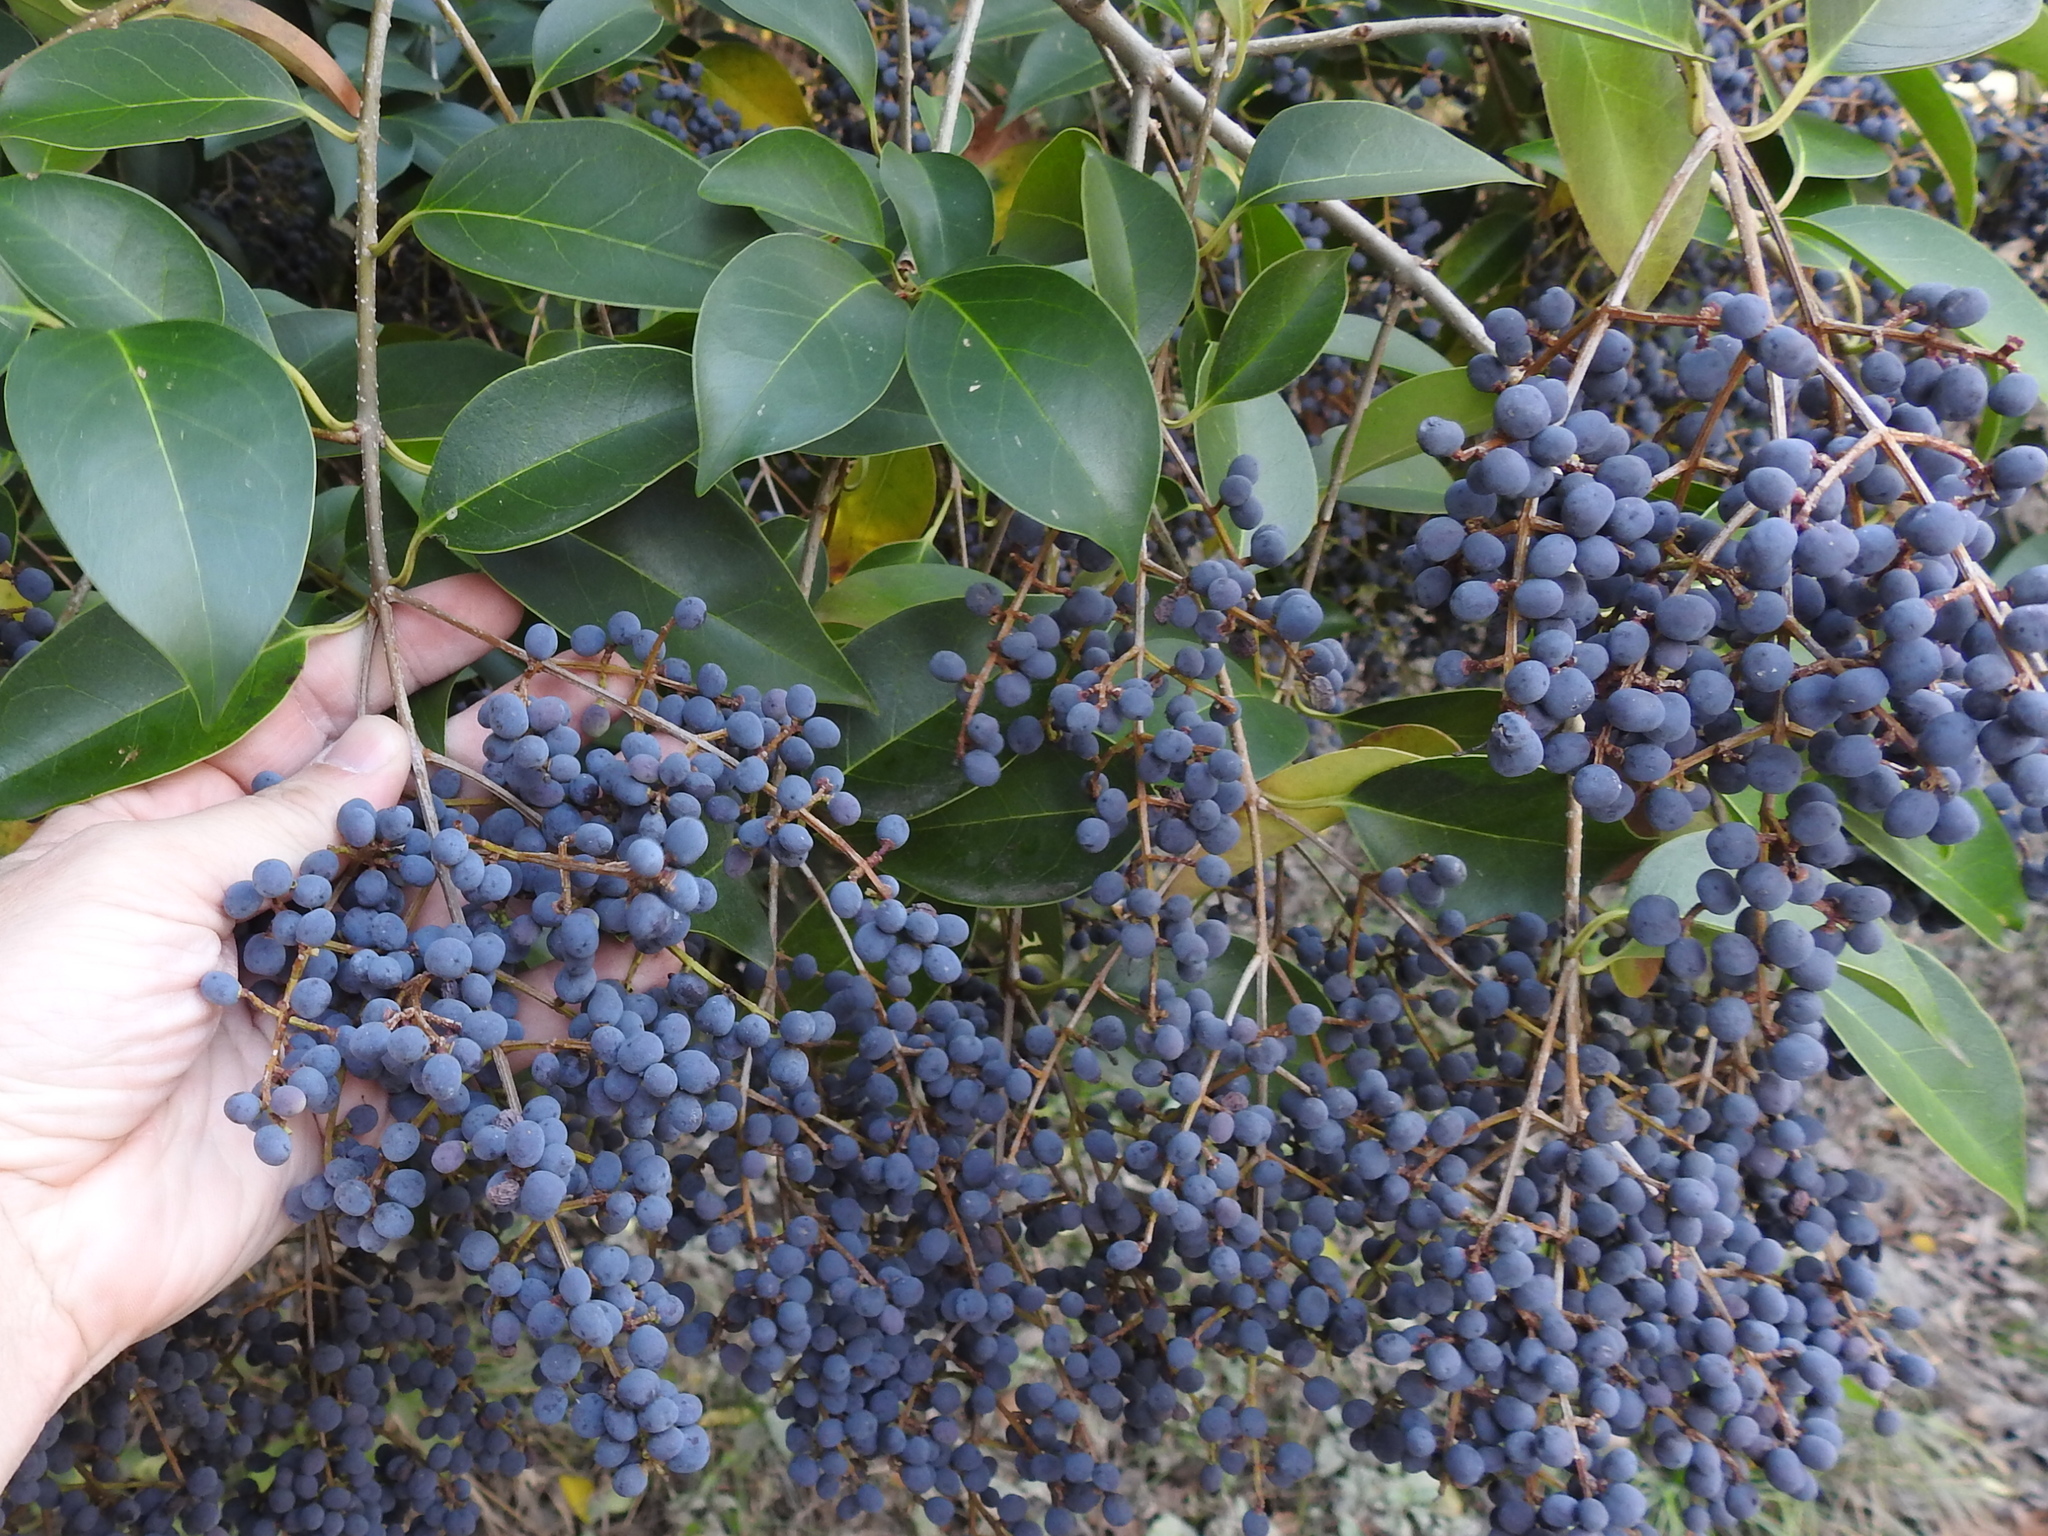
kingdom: Plantae
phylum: Tracheophyta
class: Magnoliopsida
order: Lamiales
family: Oleaceae
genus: Ligustrum
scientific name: Ligustrum lucidum
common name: Glossy privet
